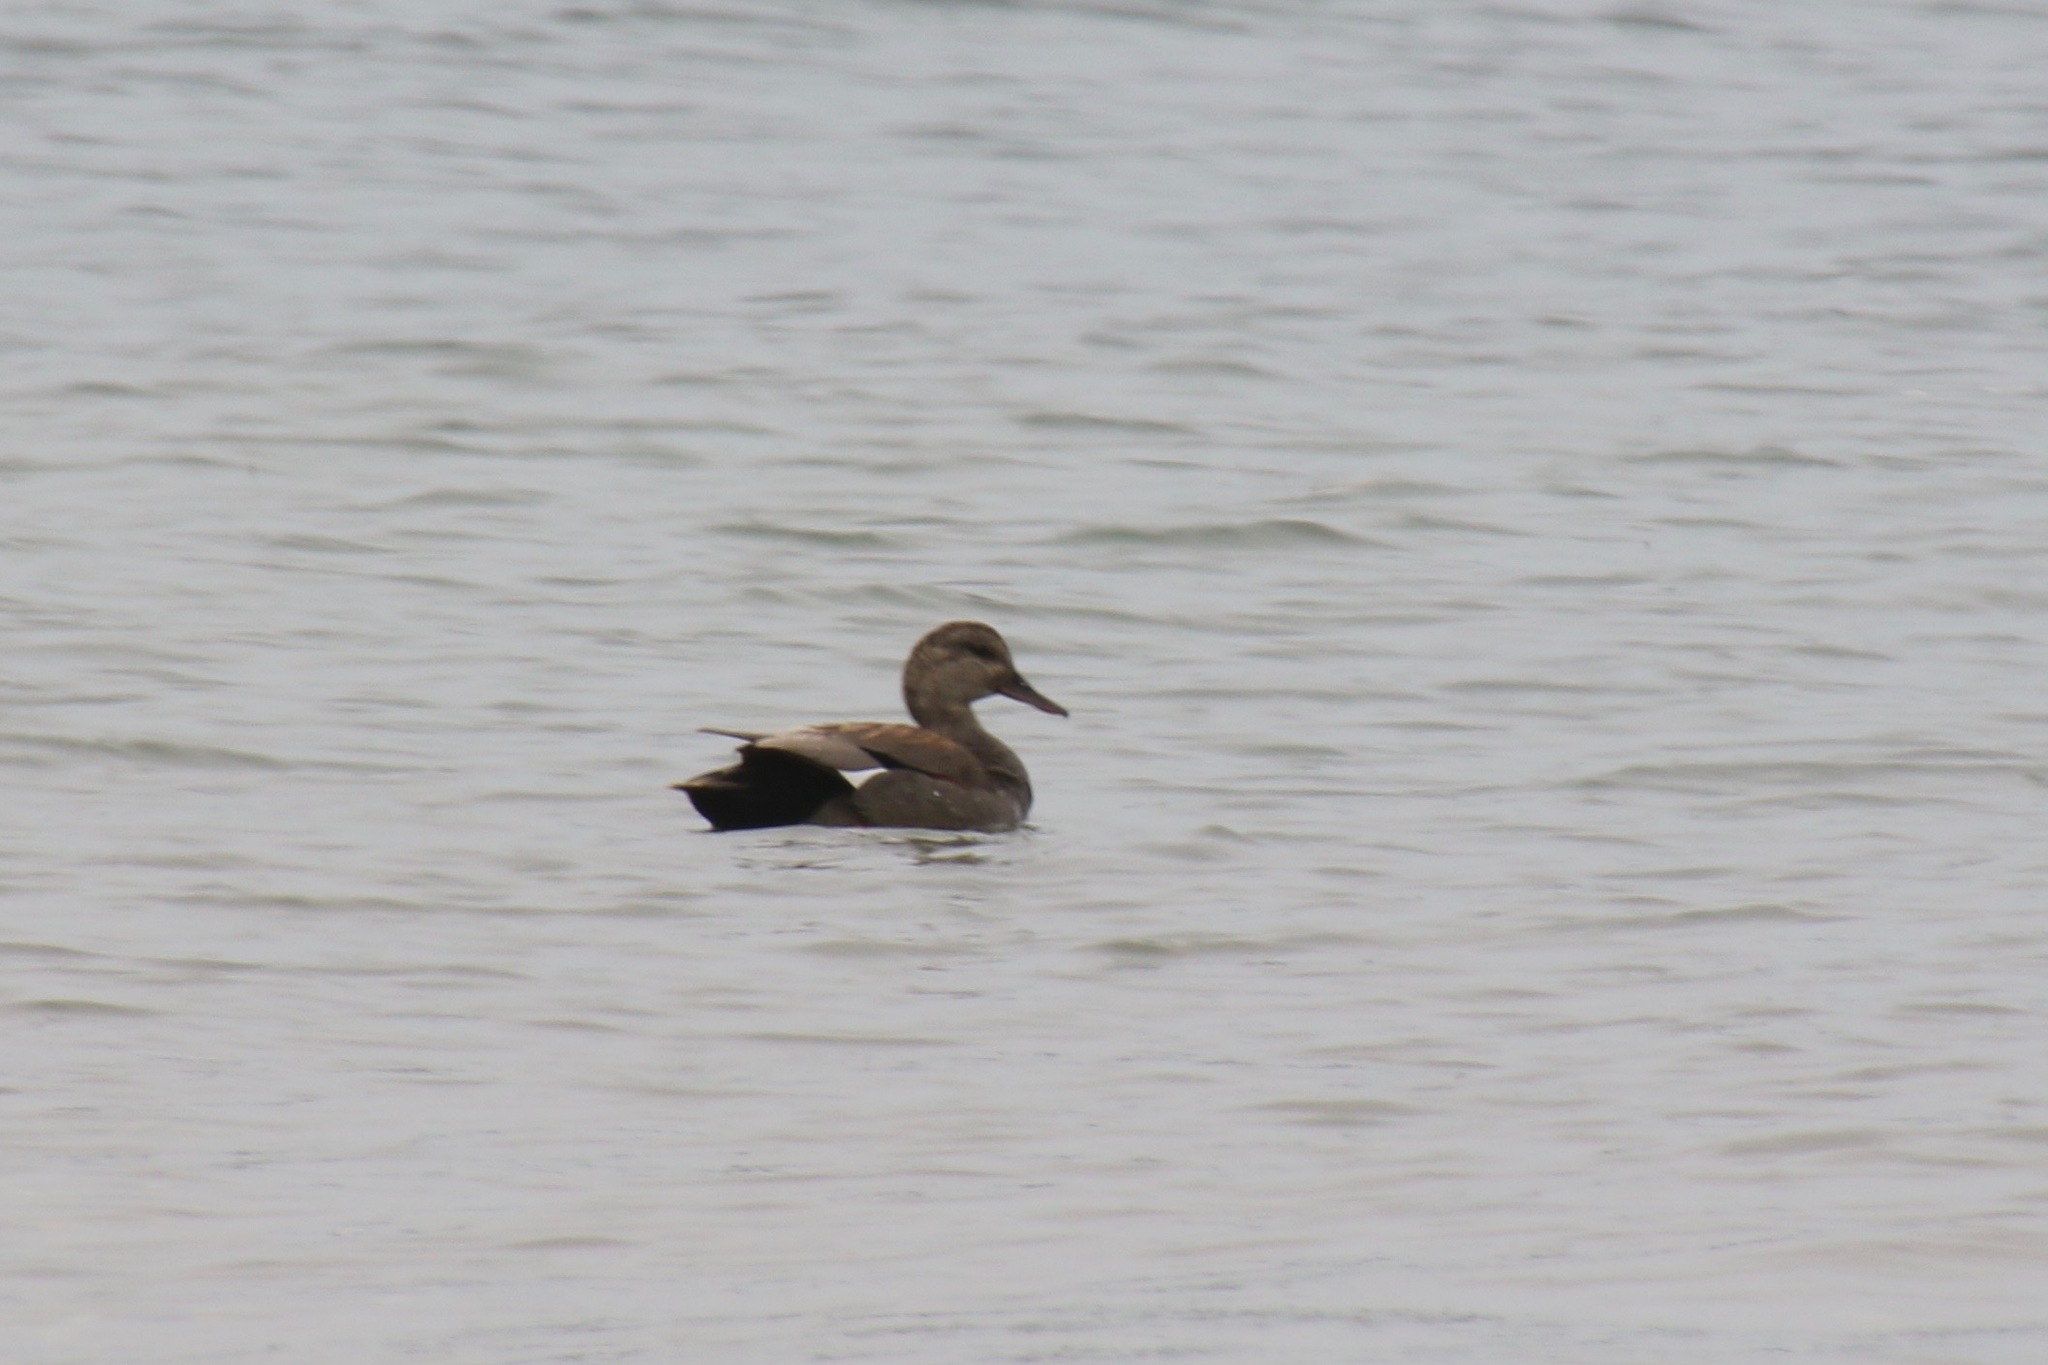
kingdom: Animalia
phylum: Chordata
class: Aves
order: Anseriformes
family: Anatidae
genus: Mareca
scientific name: Mareca strepera
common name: Gadwall
